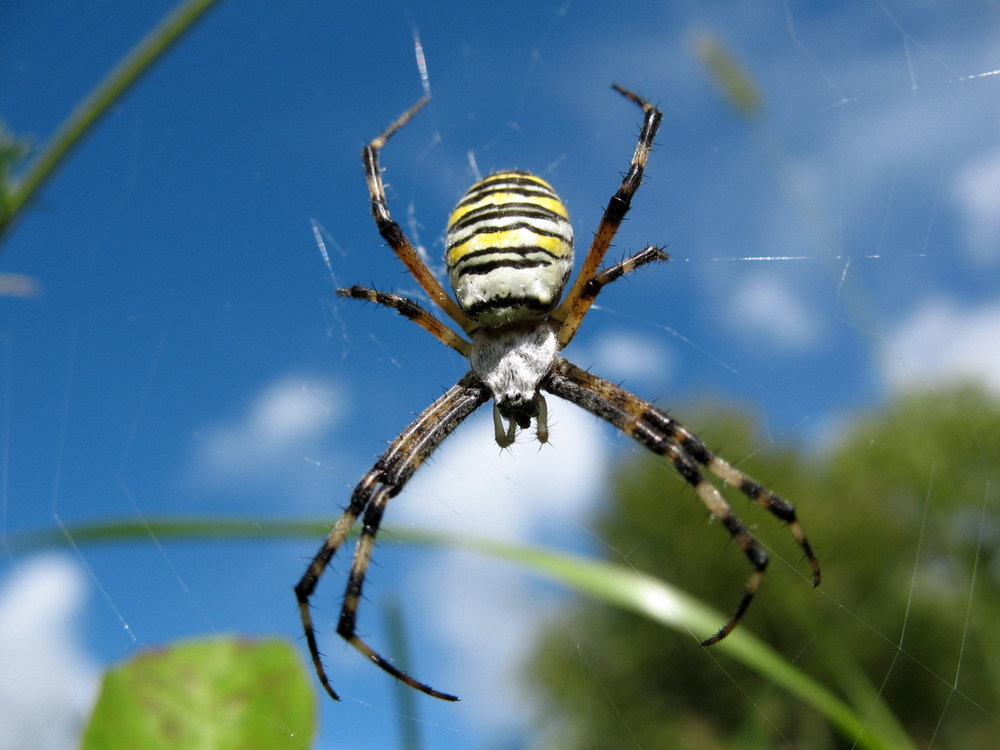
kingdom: Animalia
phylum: Arthropoda
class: Arachnida
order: Araneae
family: Araneidae
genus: Argiope
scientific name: Argiope bruennichi
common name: Wasp spider
